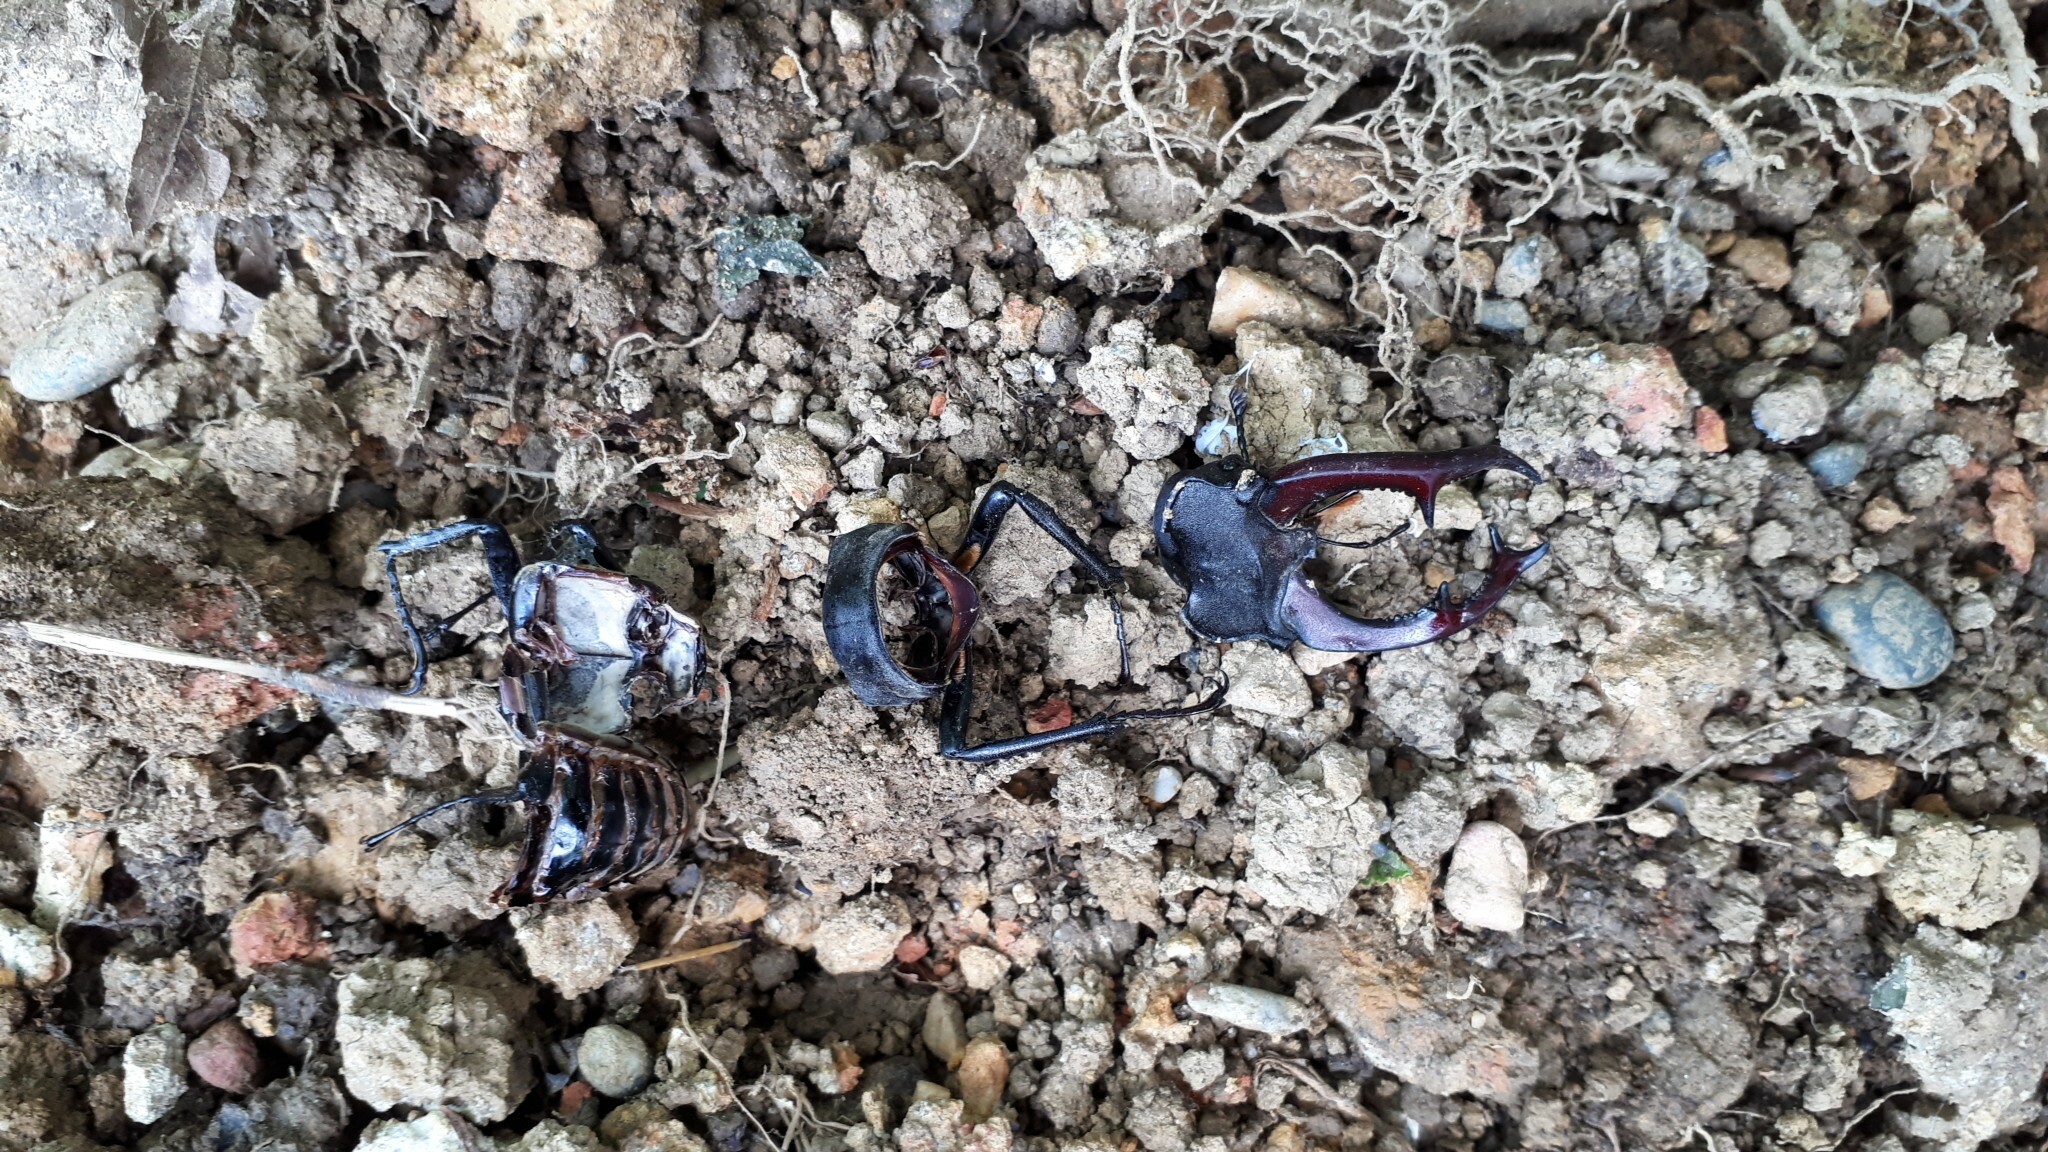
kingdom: Animalia
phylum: Arthropoda
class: Insecta
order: Coleoptera
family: Lucanidae
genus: Lucanus
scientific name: Lucanus cervus
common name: Stag beetle
